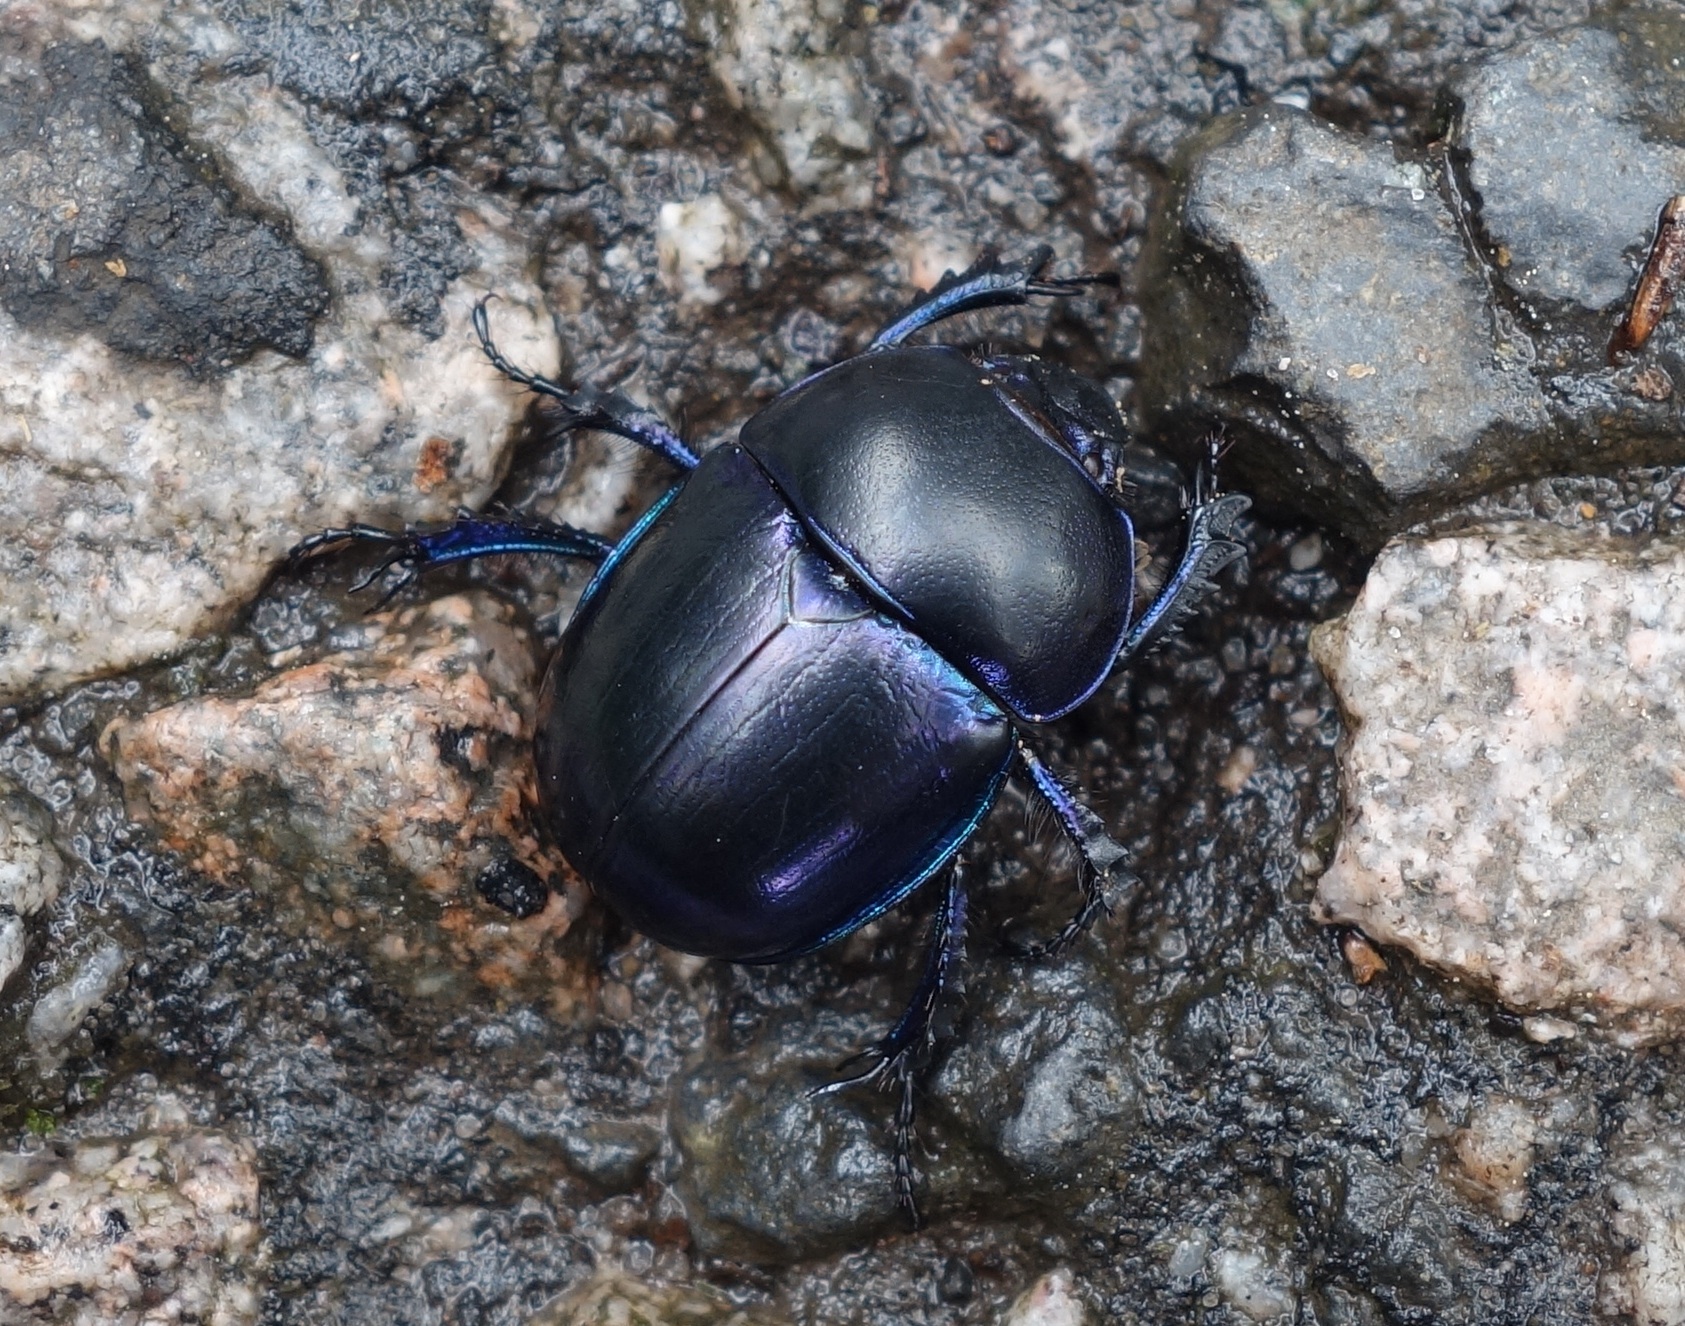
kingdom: Animalia
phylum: Arthropoda
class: Insecta
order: Coleoptera
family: Geotrupidae
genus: Trypocopris
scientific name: Trypocopris vernalis
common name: Spring dumbledor
